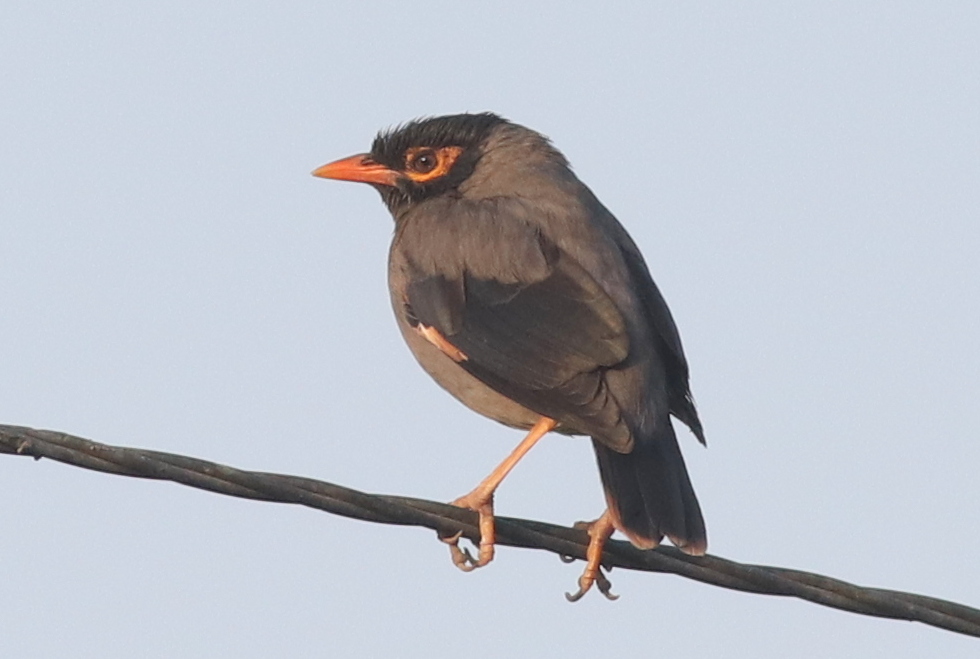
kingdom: Animalia
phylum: Chordata
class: Aves
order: Passeriformes
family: Sturnidae
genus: Acridotheres
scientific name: Acridotheres ginginianus
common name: Bank myna
